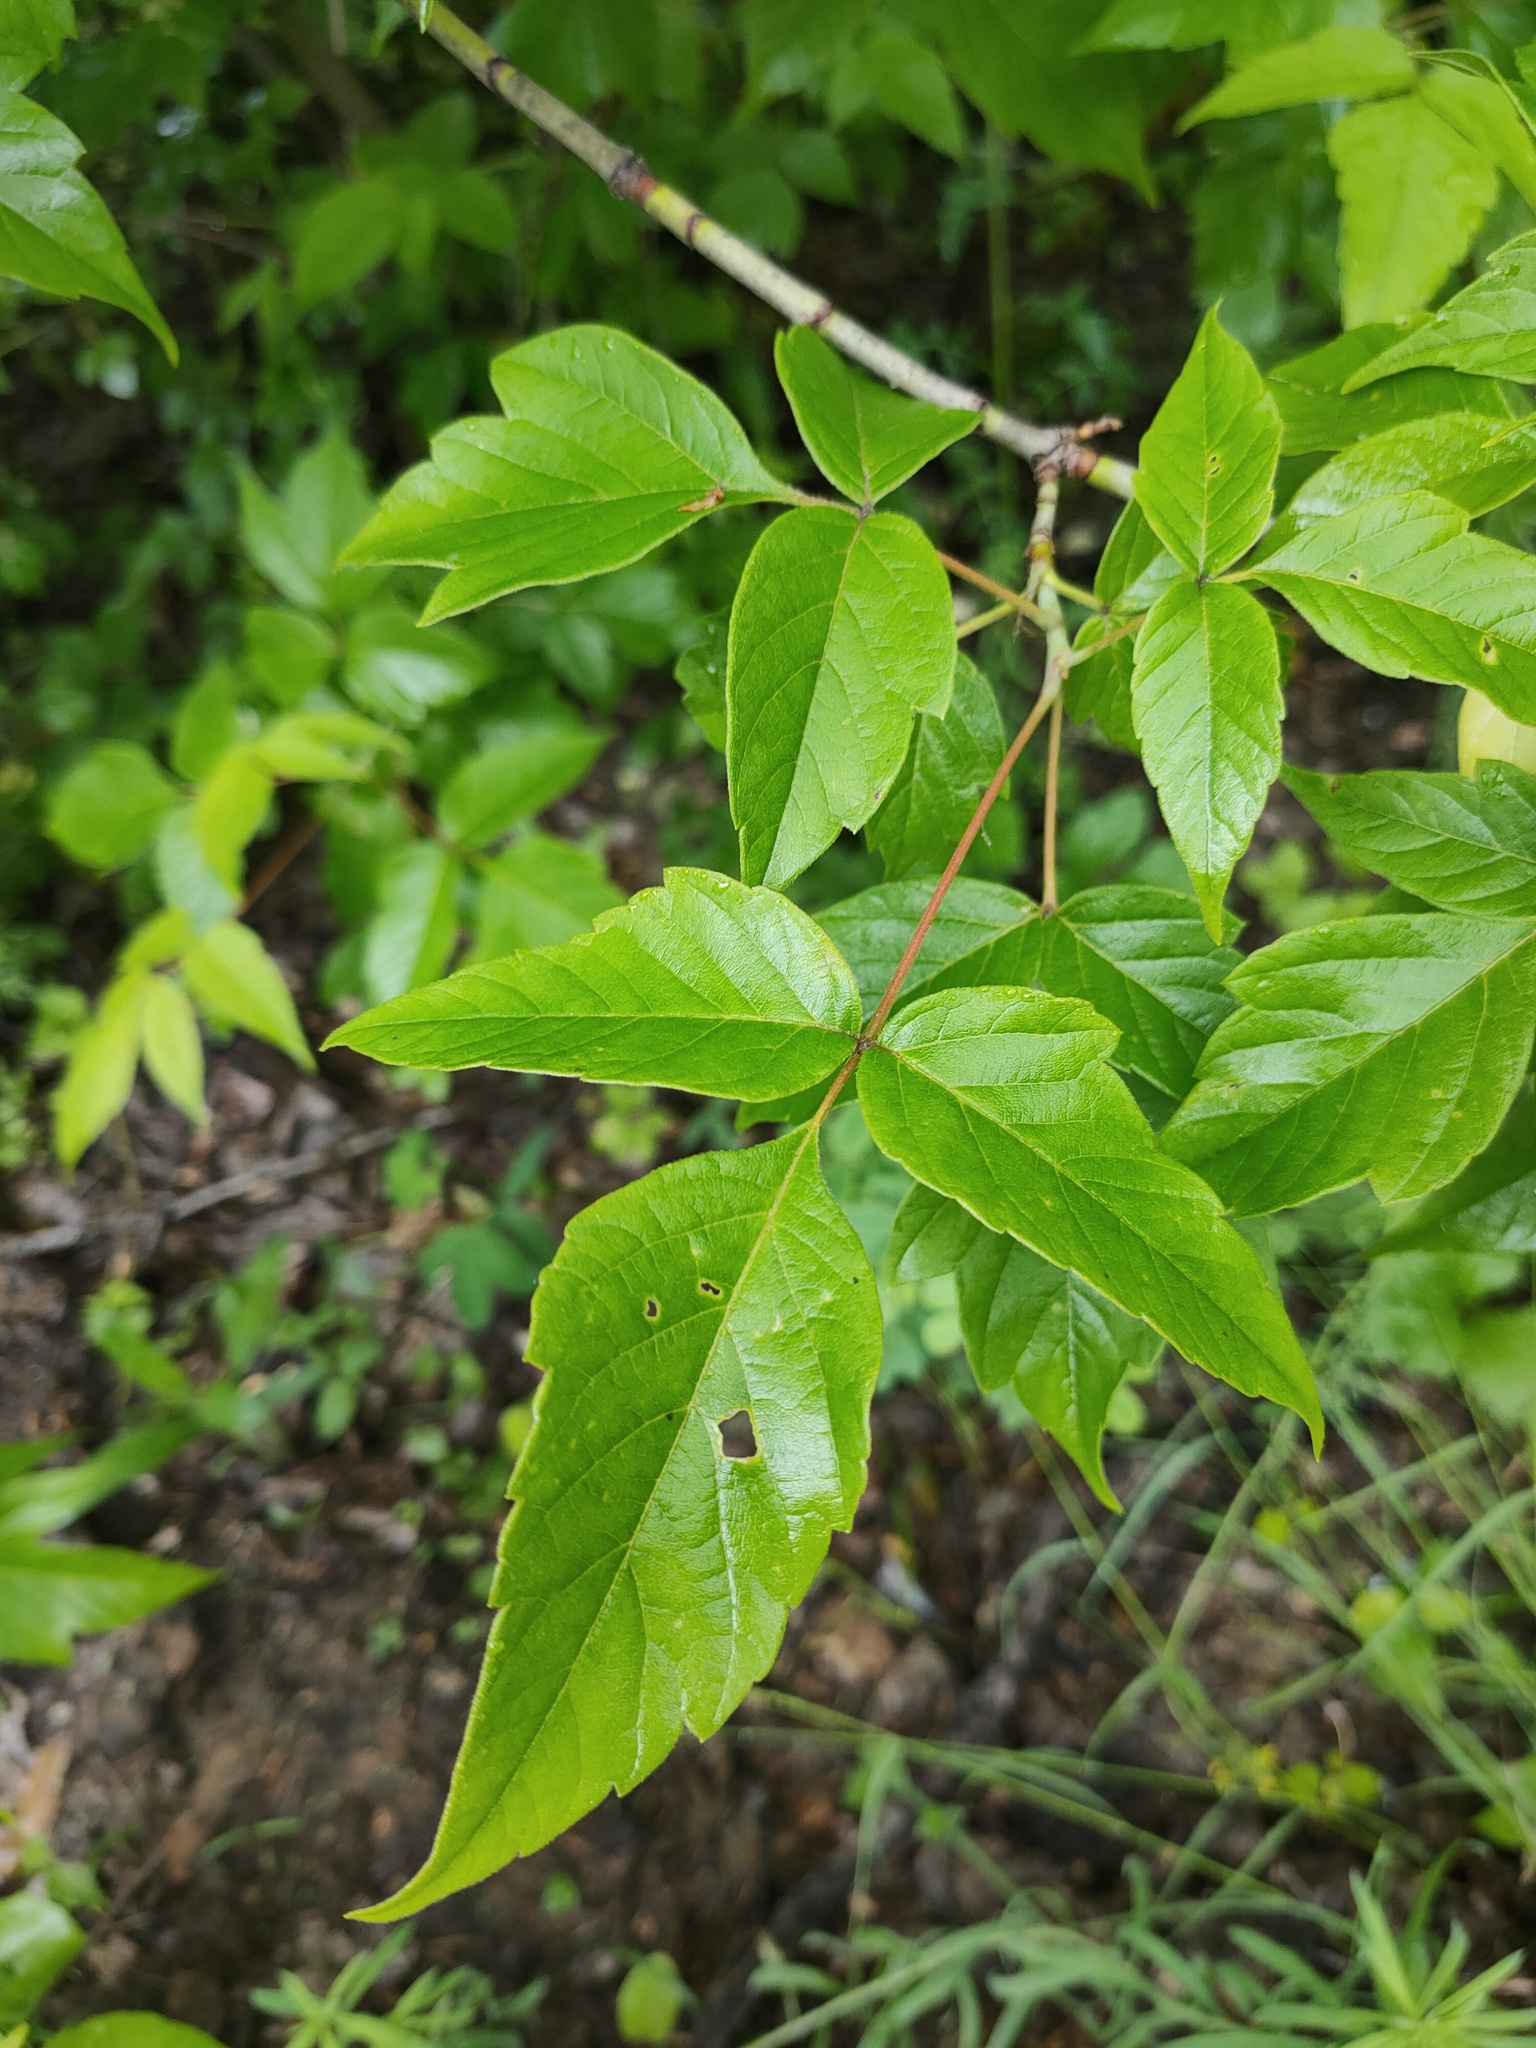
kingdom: Plantae
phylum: Tracheophyta
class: Magnoliopsida
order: Sapindales
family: Sapindaceae
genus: Acer
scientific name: Acer negundo
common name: Ashleaf maple
